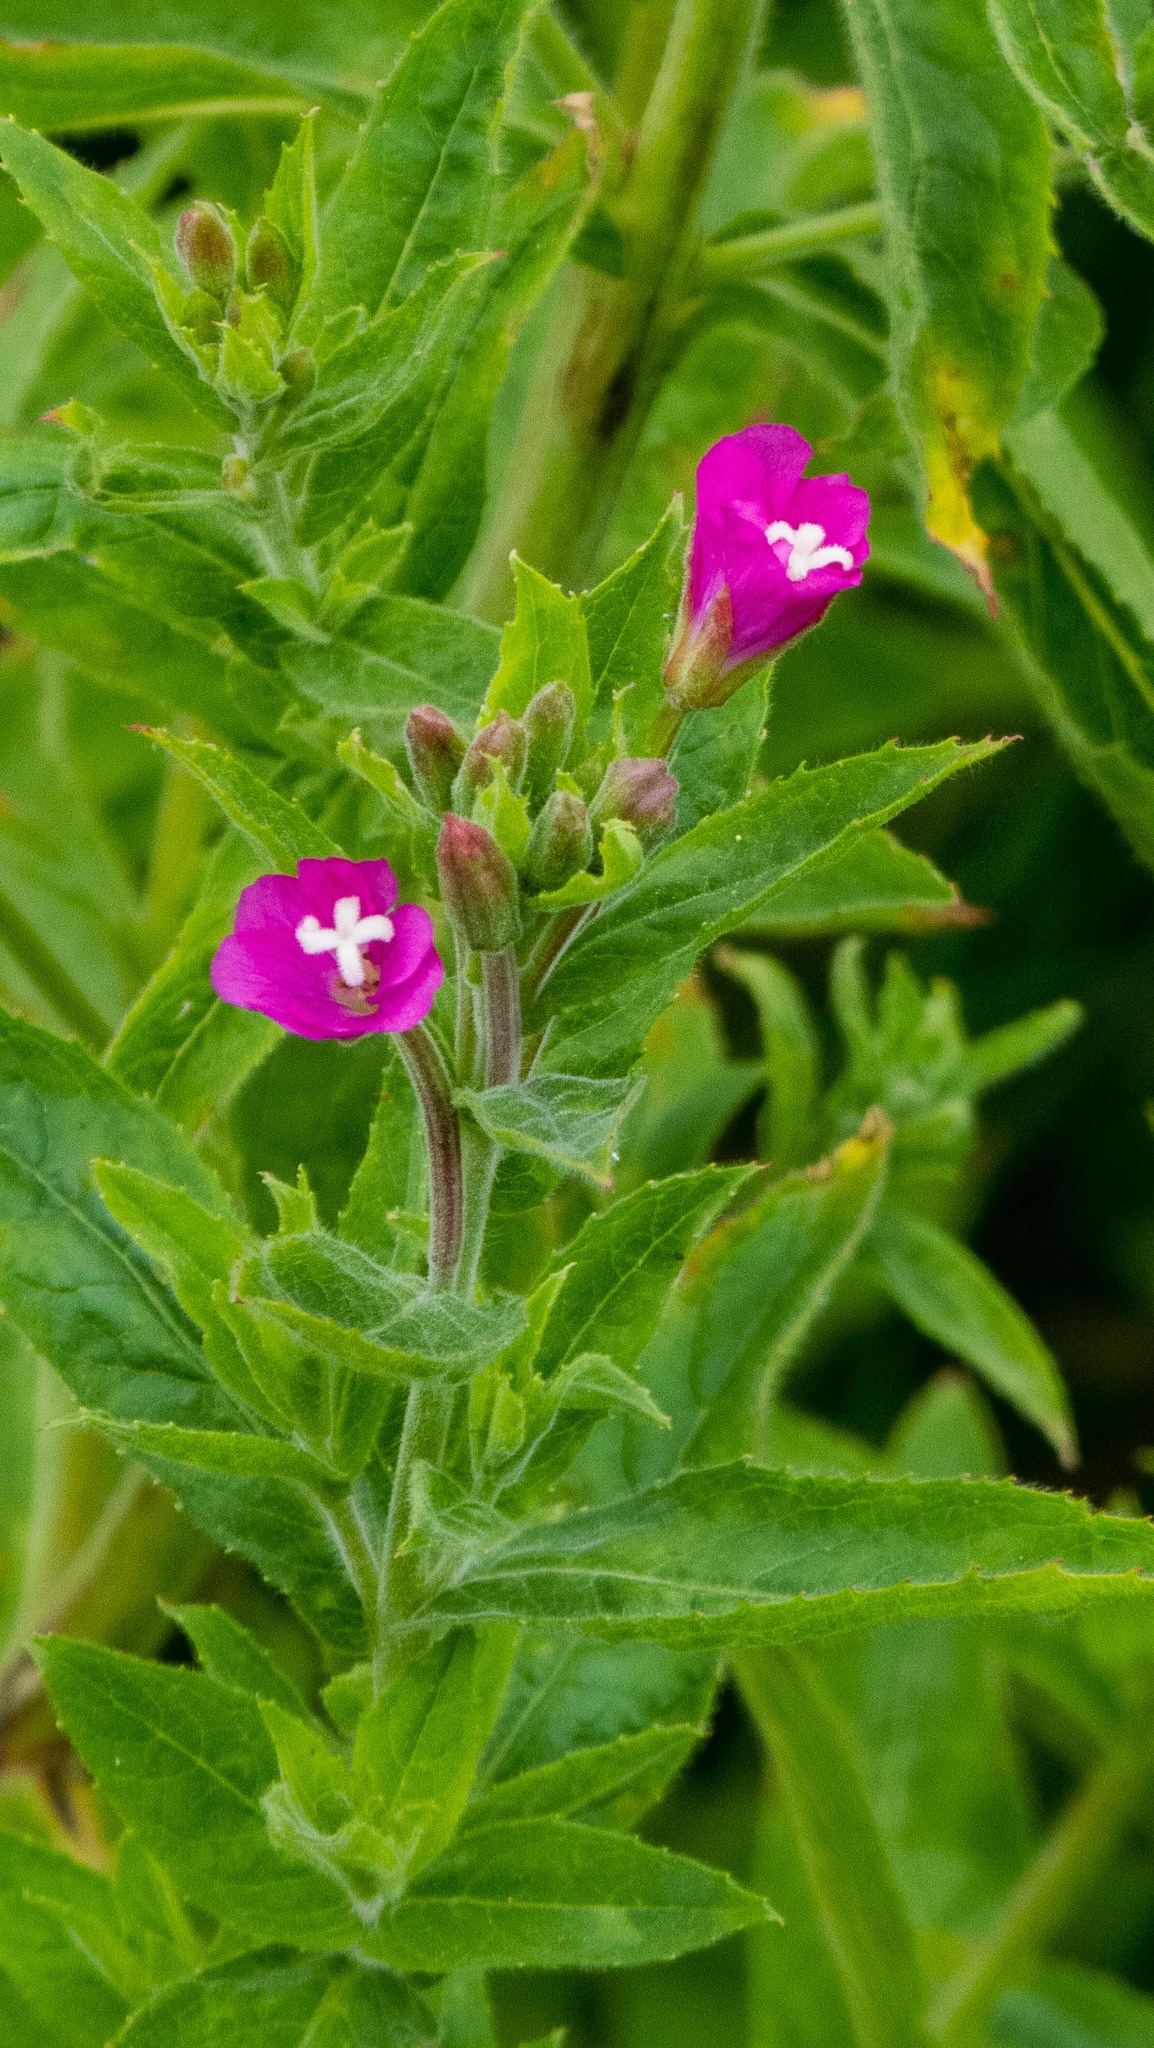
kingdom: Plantae
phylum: Tracheophyta
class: Magnoliopsida
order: Myrtales
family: Onagraceae
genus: Epilobium
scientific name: Epilobium hirsutum
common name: Great willowherb
